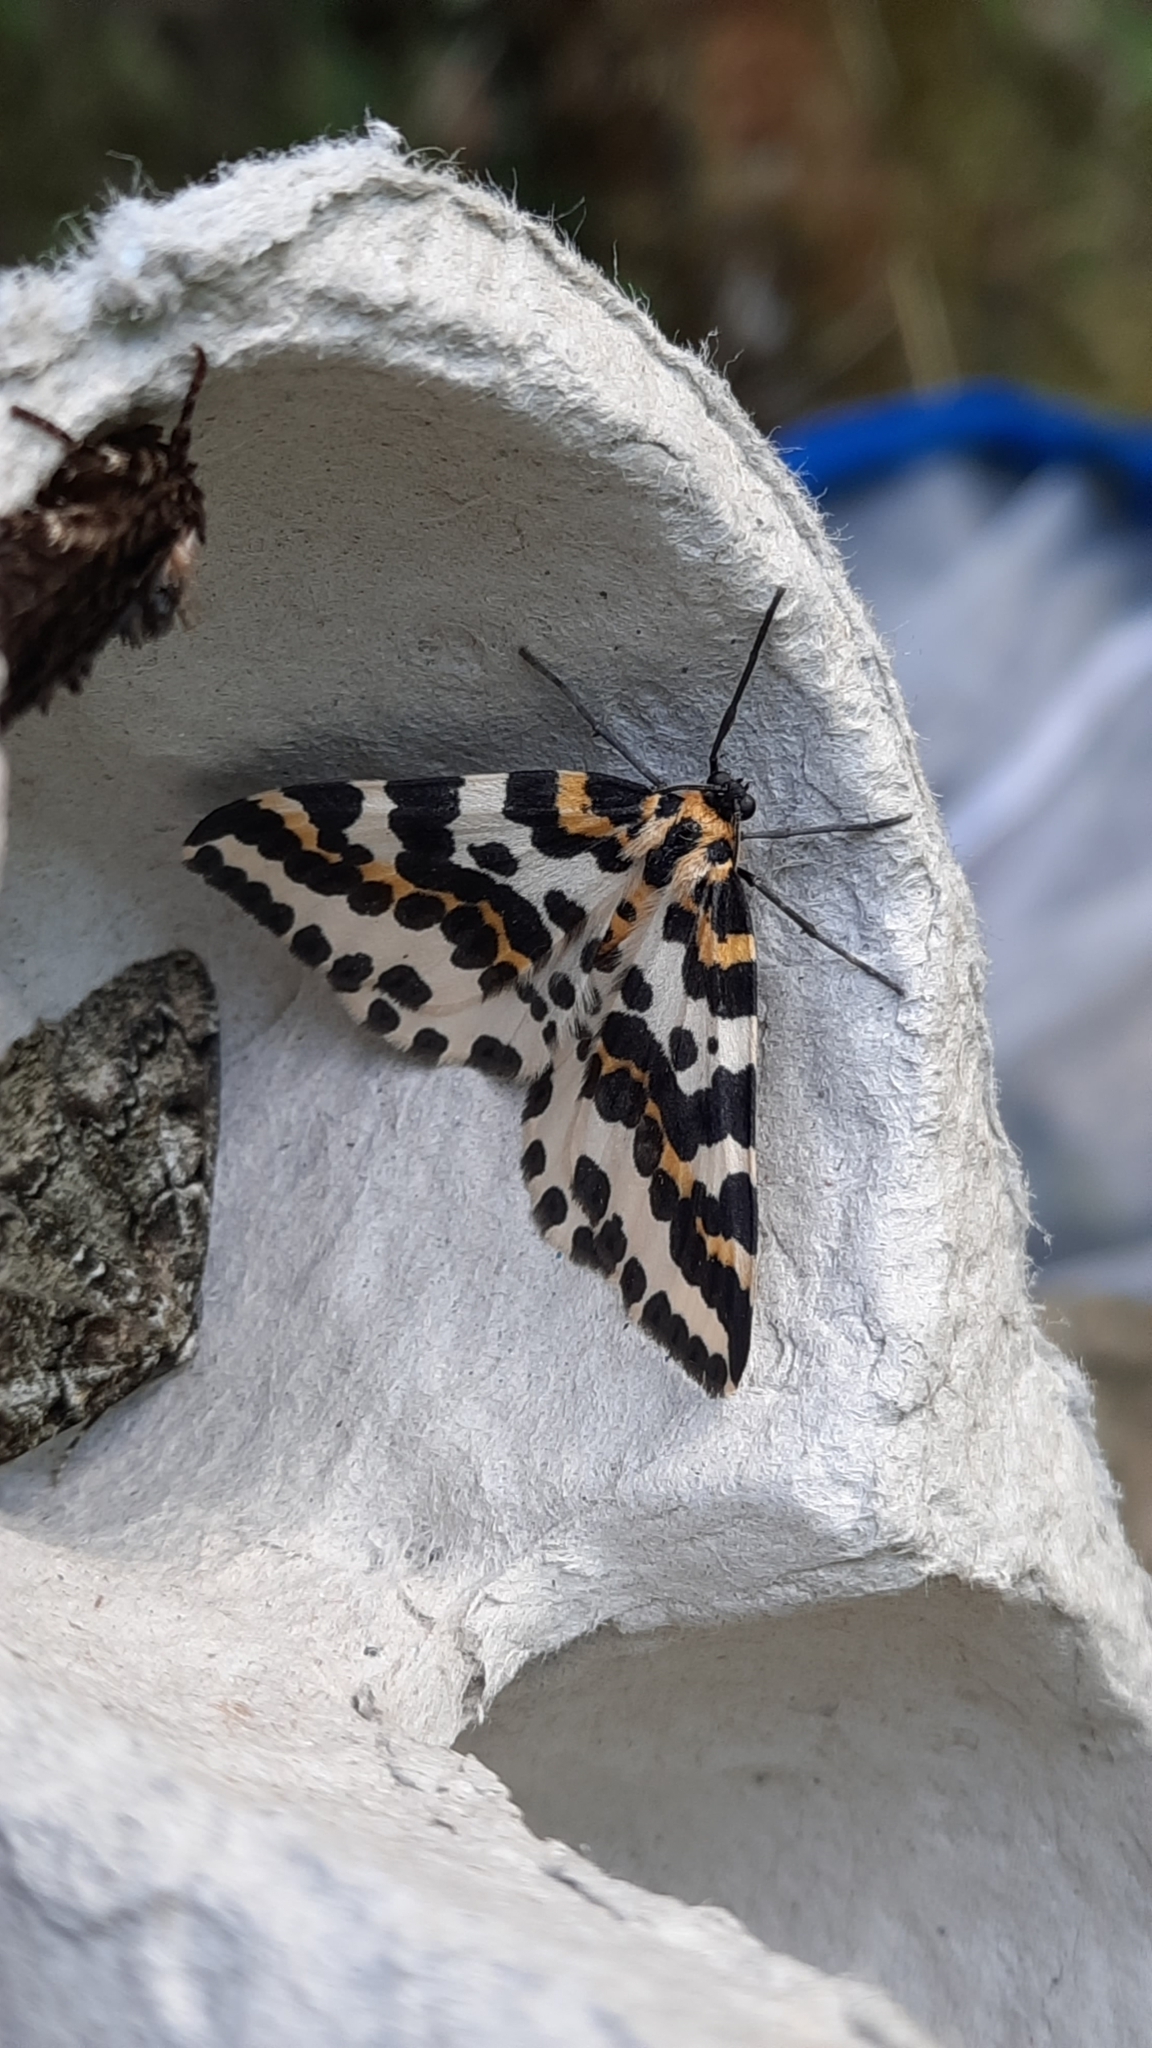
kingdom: Animalia
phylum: Arthropoda
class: Insecta
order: Lepidoptera
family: Geometridae
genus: Abraxas
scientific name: Abraxas grossulariata
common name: Magpie
